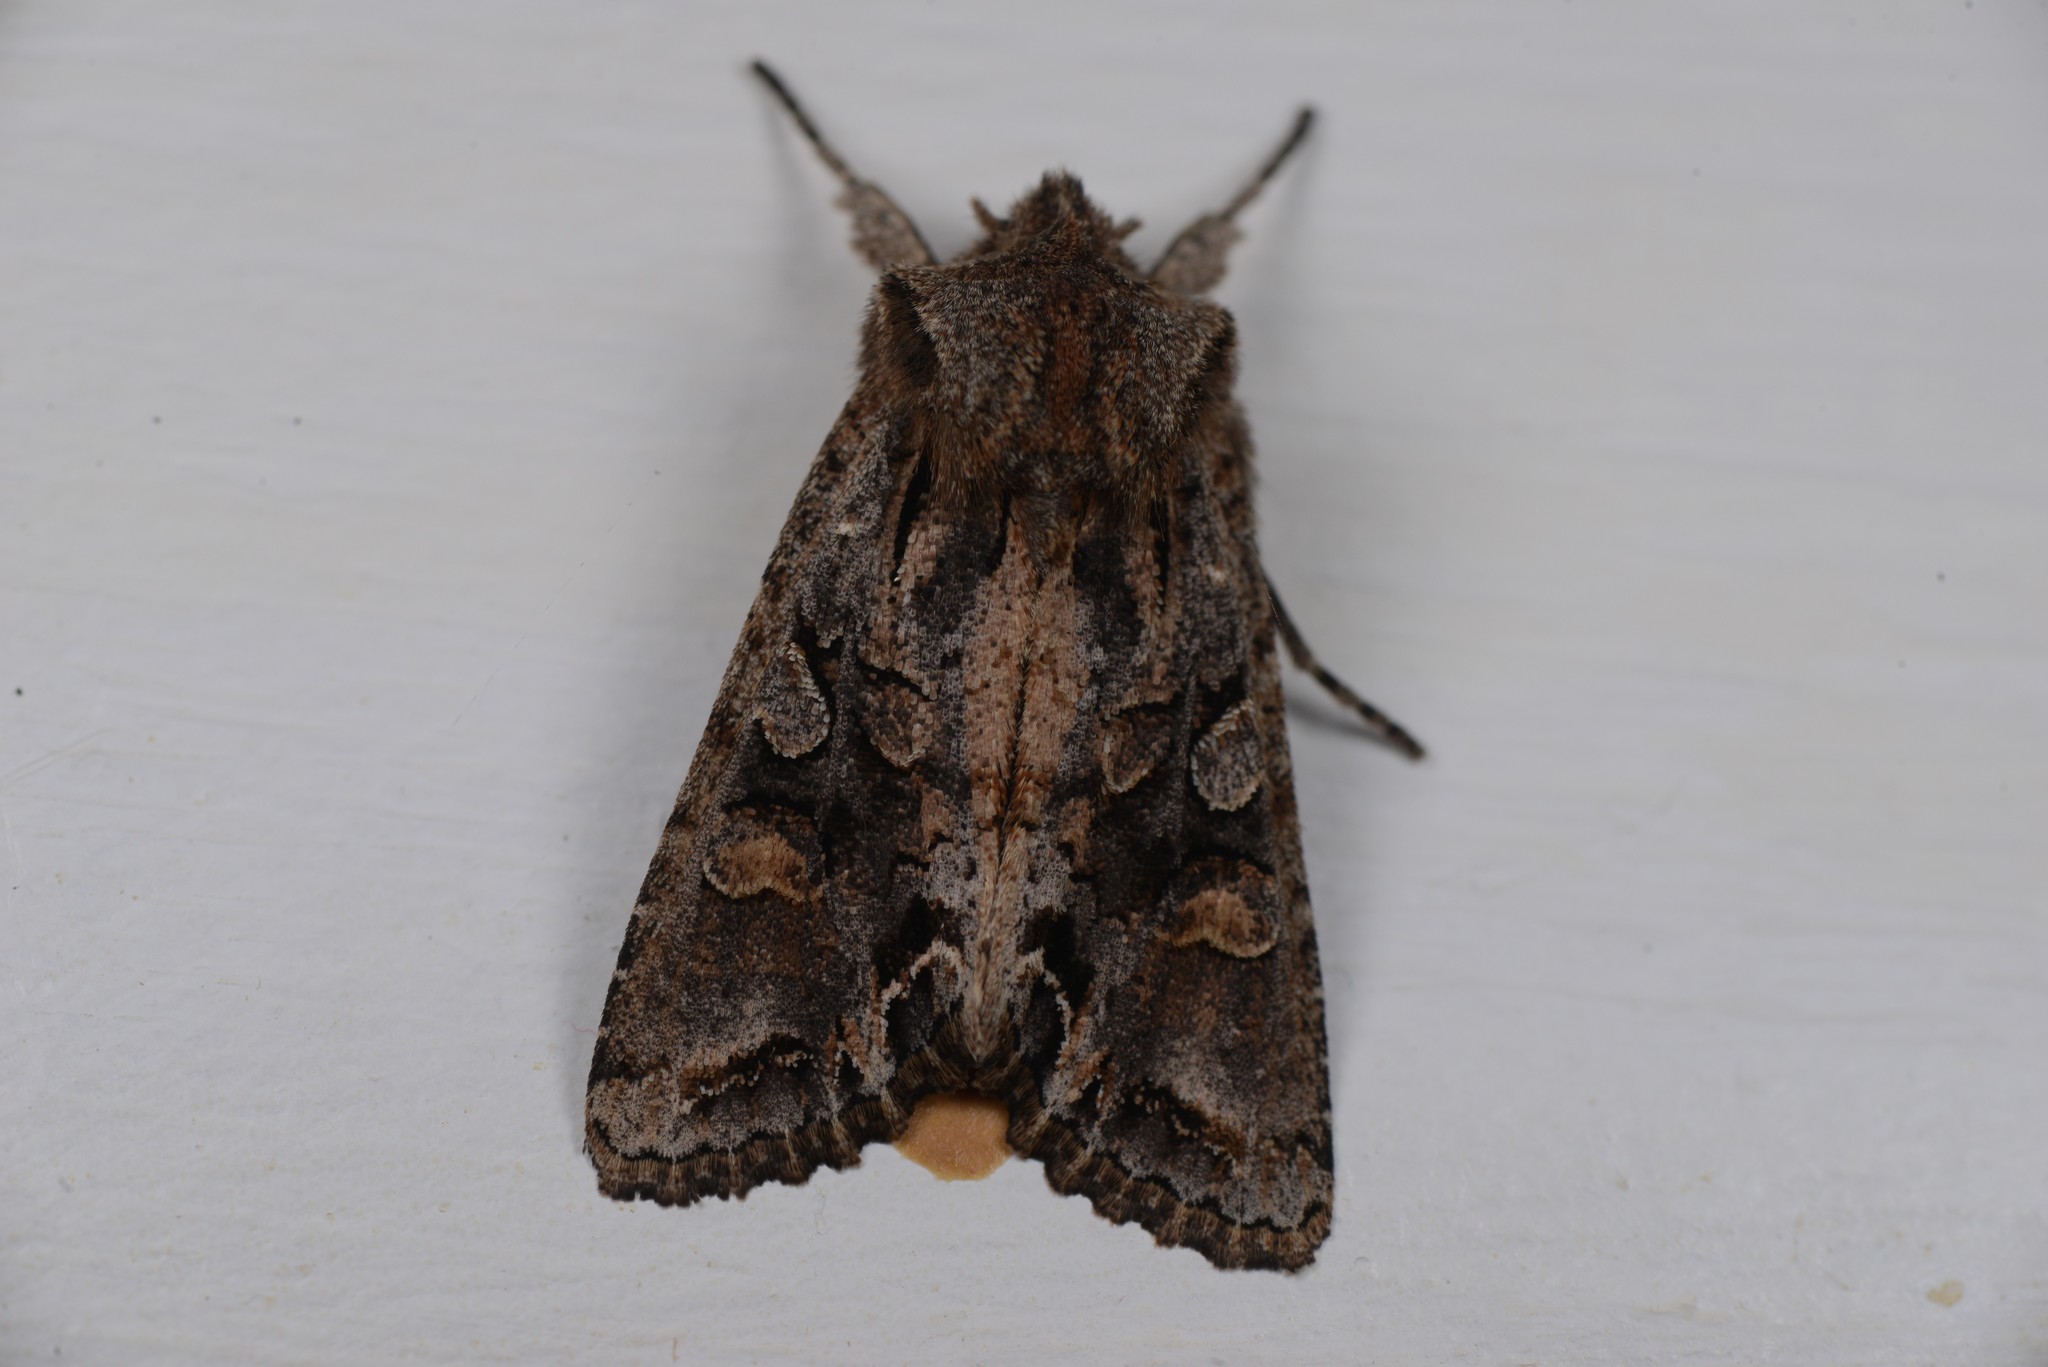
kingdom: Animalia
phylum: Arthropoda
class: Insecta
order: Lepidoptera
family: Noctuidae
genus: Ichneutica
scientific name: Ichneutica insignis
